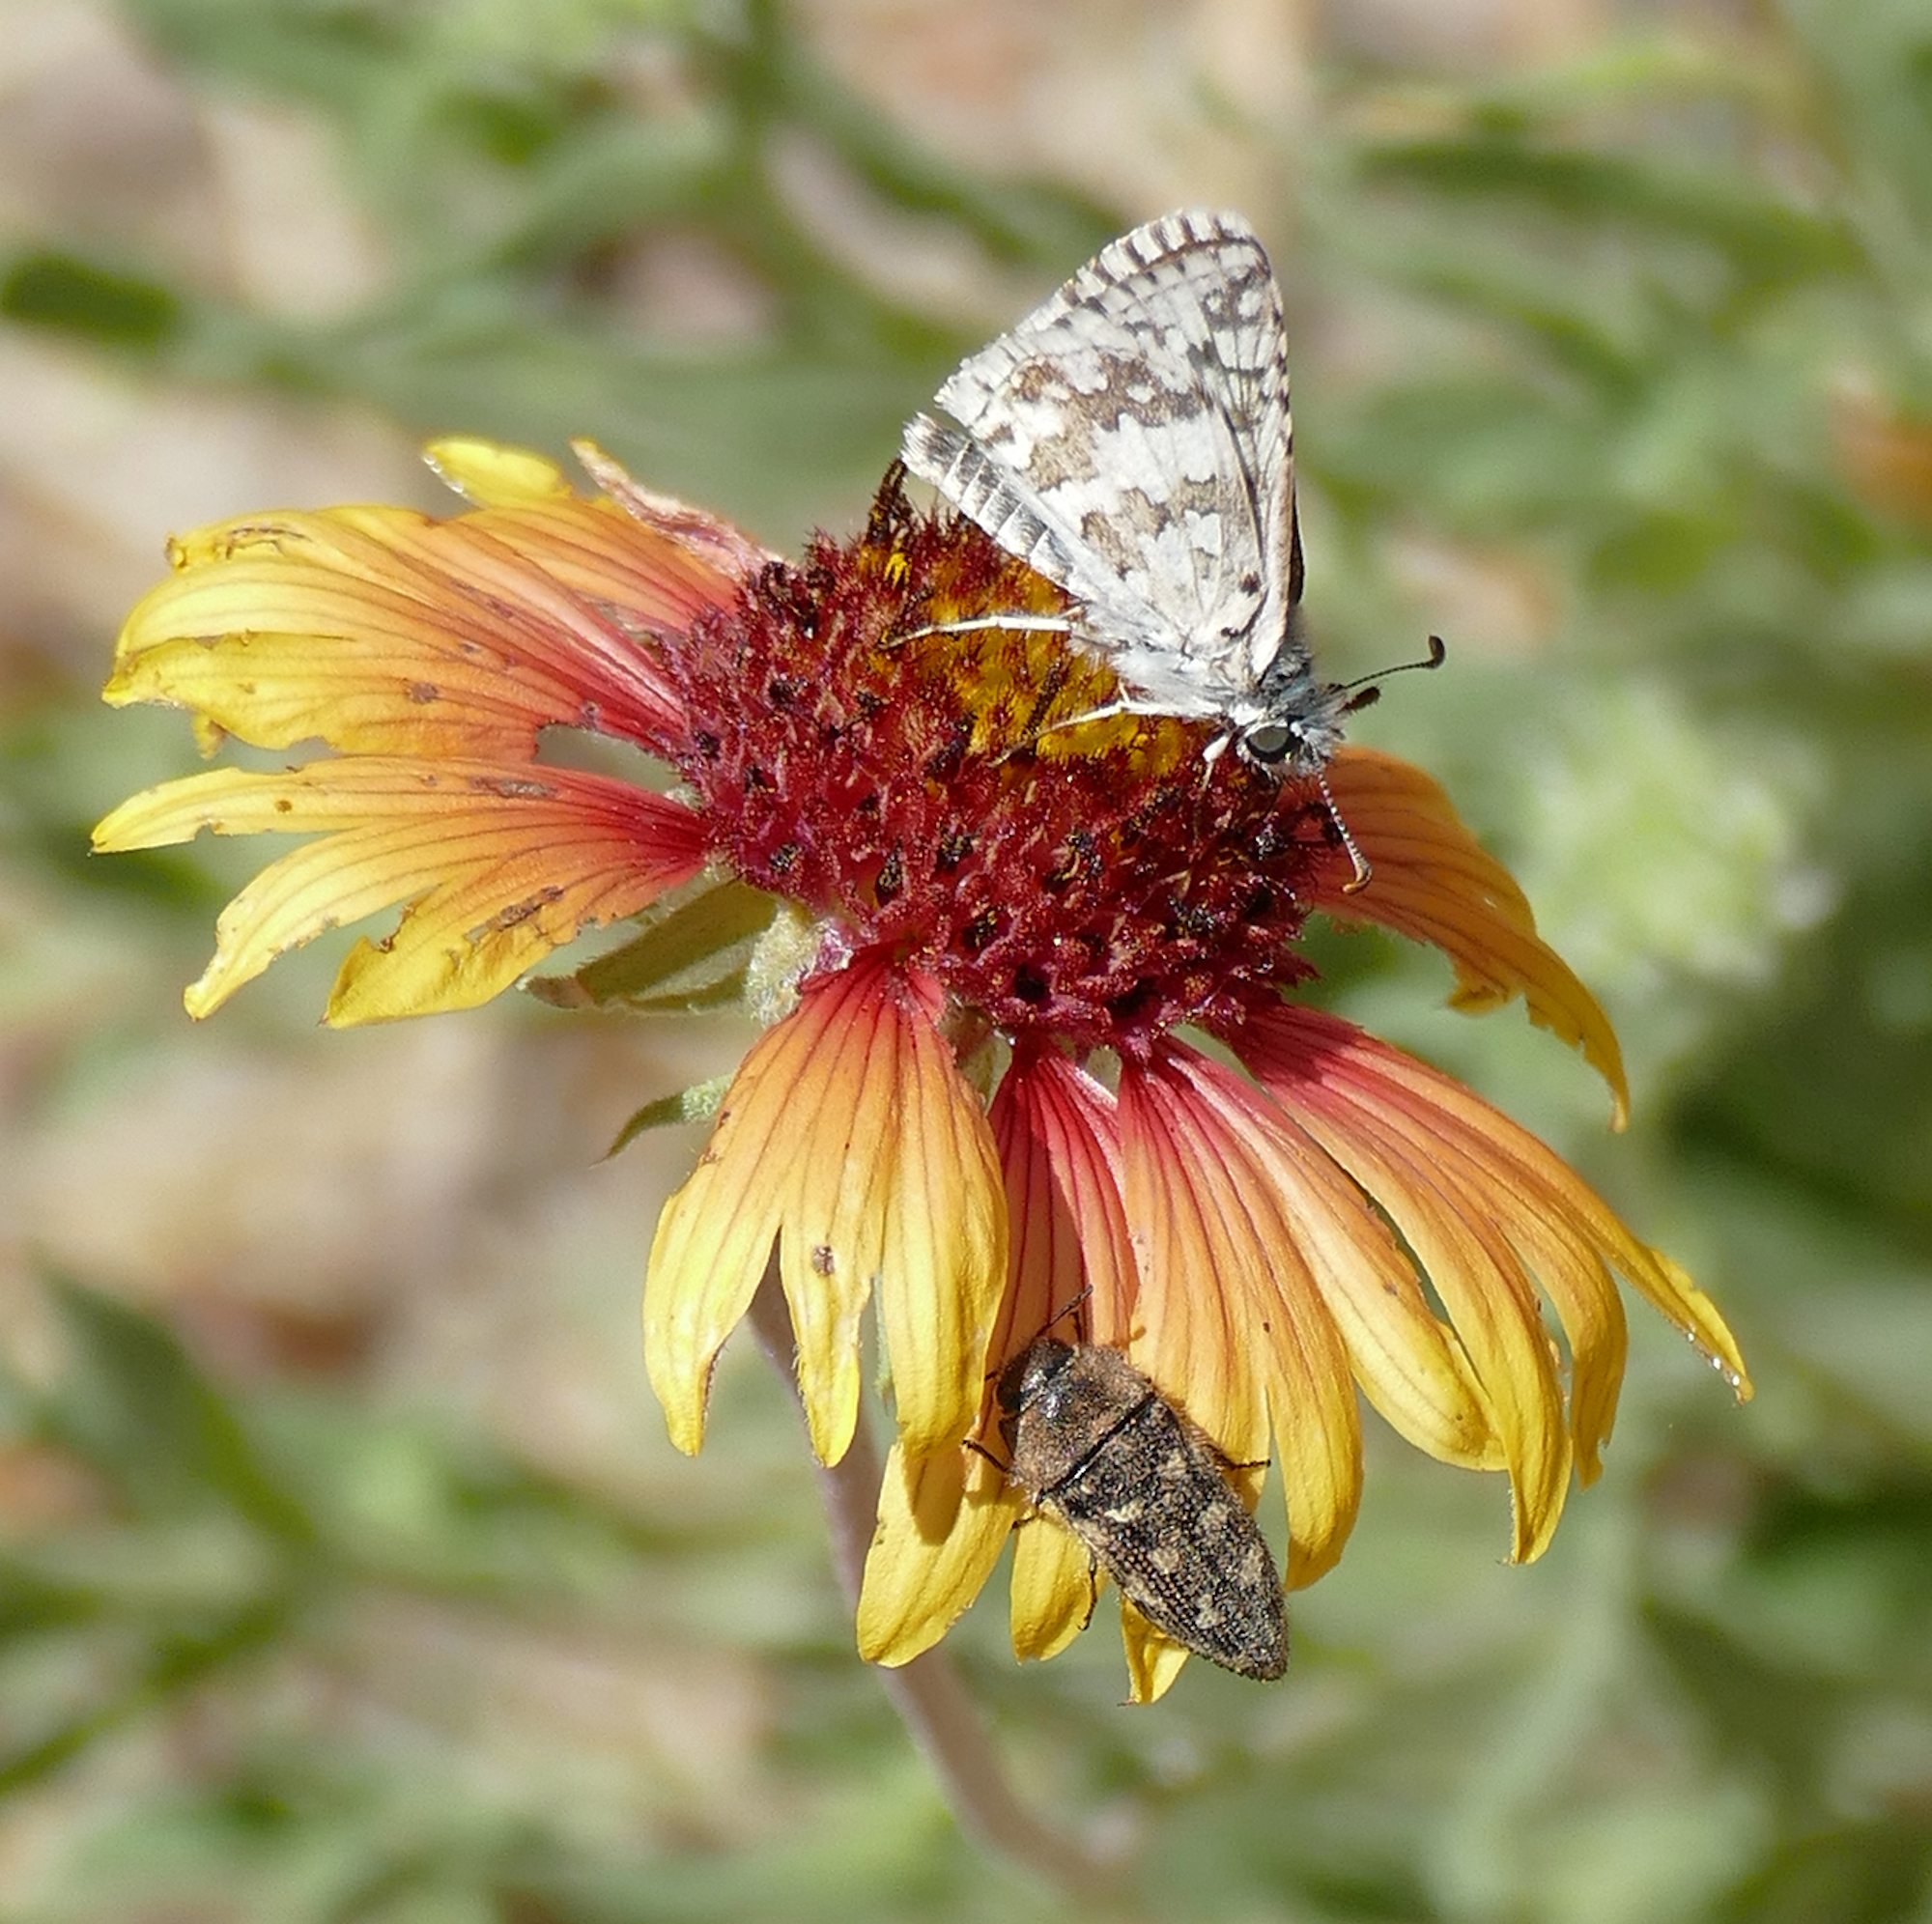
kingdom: Animalia
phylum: Arthropoda
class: Insecta
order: Lepidoptera
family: Hesperiidae
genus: Burnsius
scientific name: Burnsius
